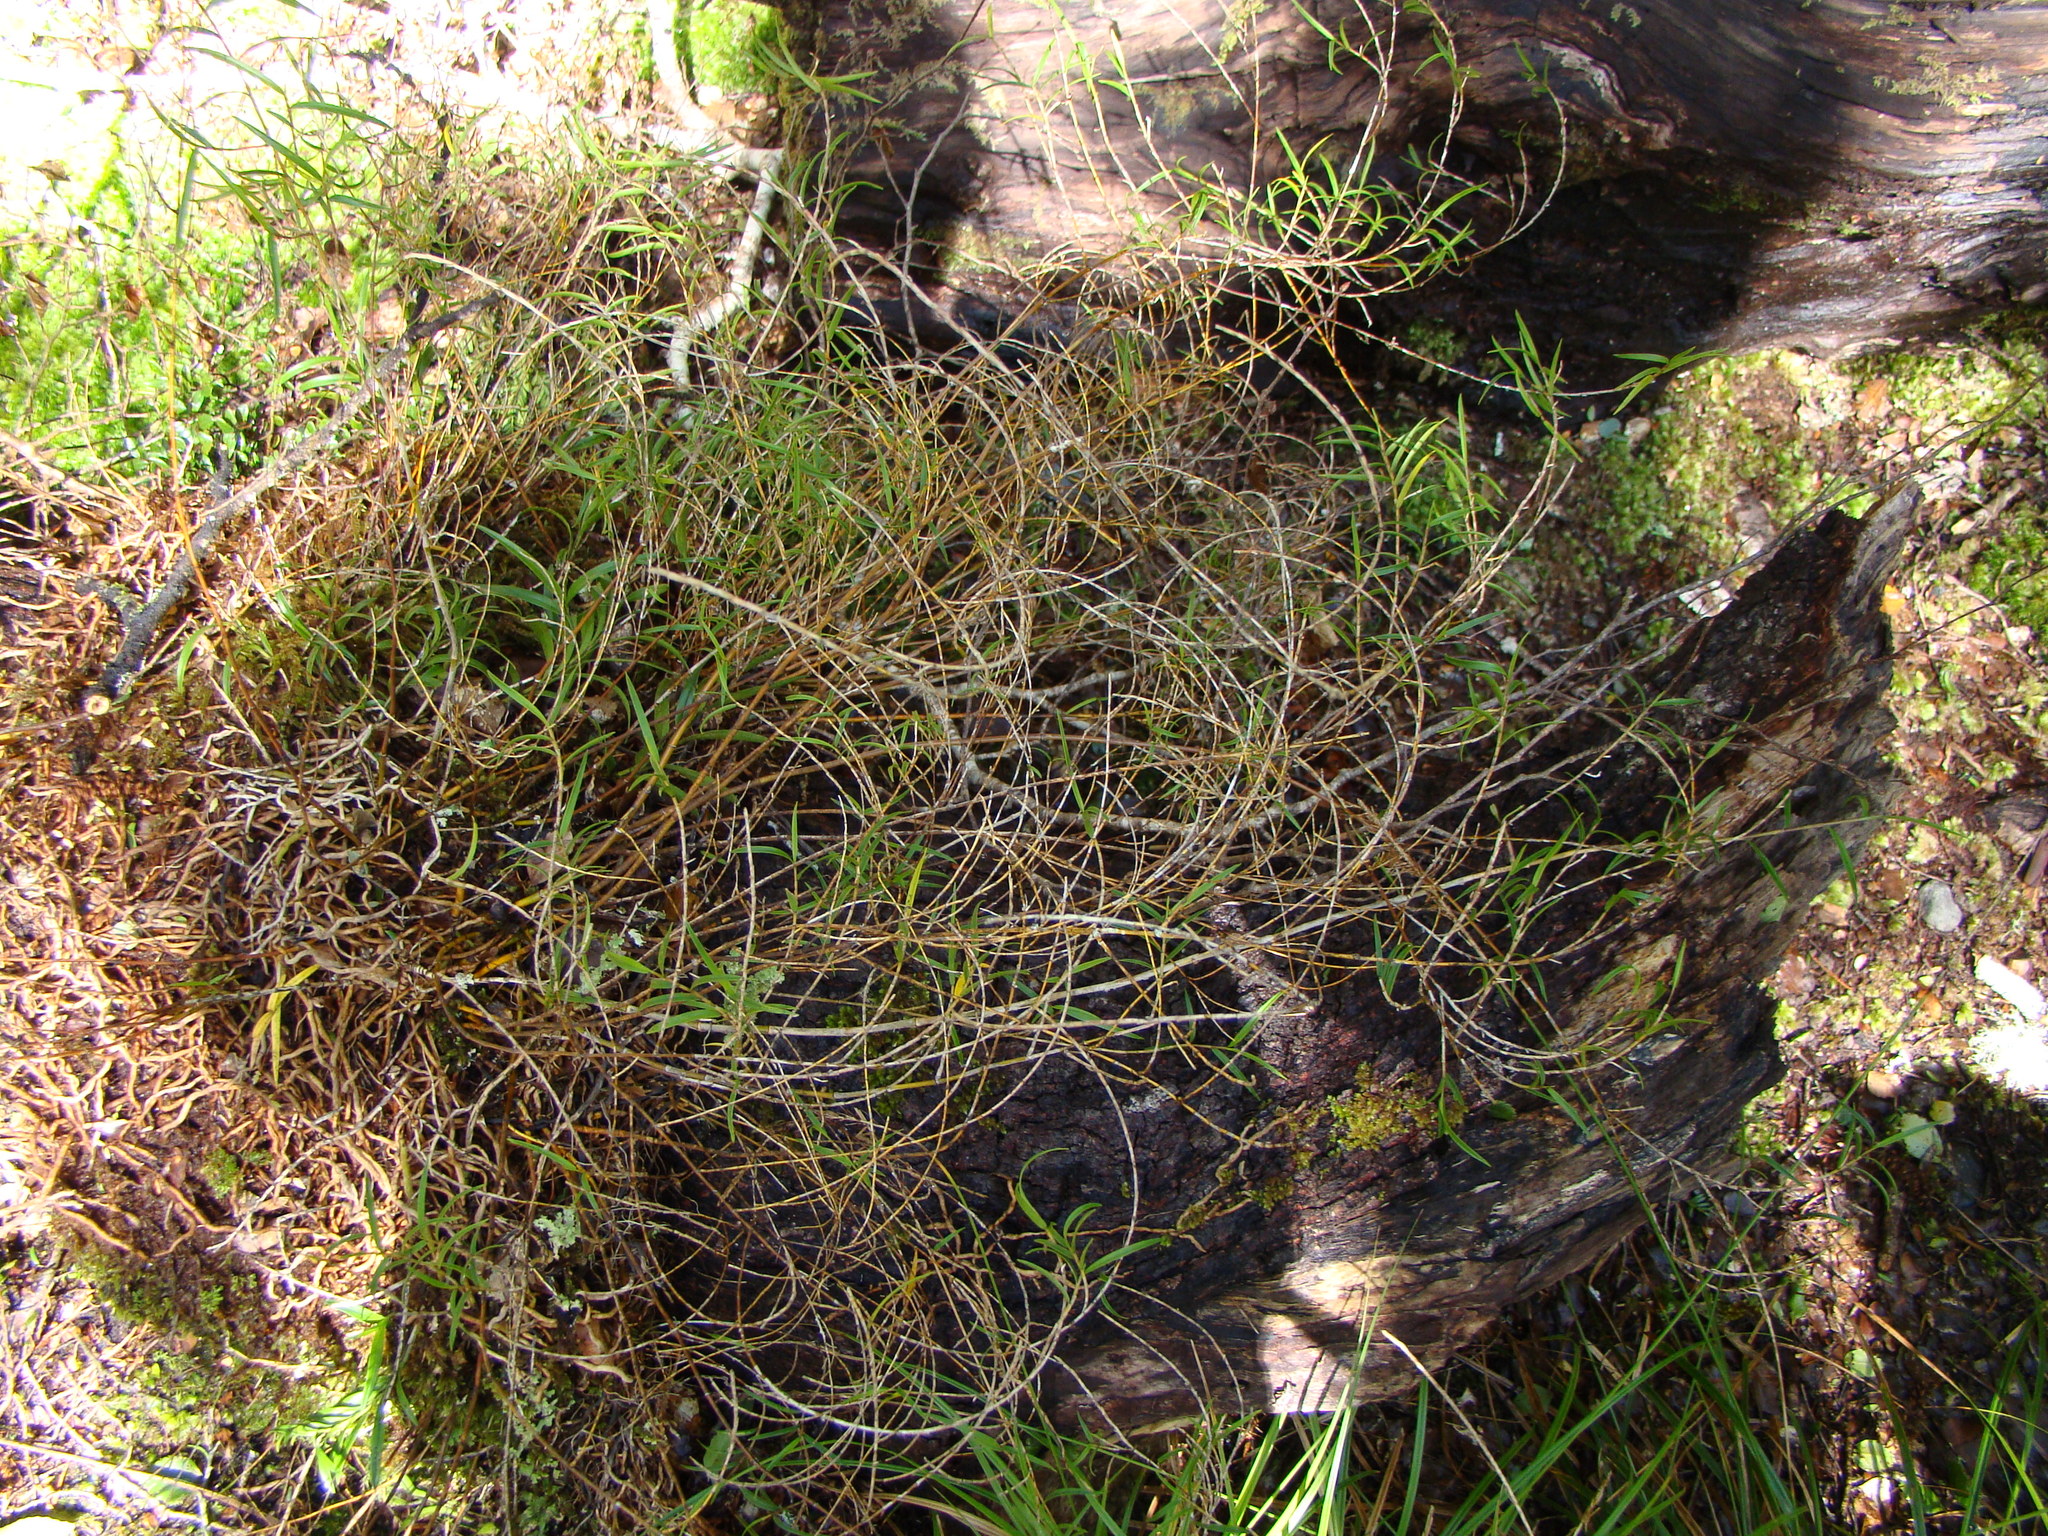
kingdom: Plantae
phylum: Tracheophyta
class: Liliopsida
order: Asparagales
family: Orchidaceae
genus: Dendrobium
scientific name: Dendrobium cunninghamii
